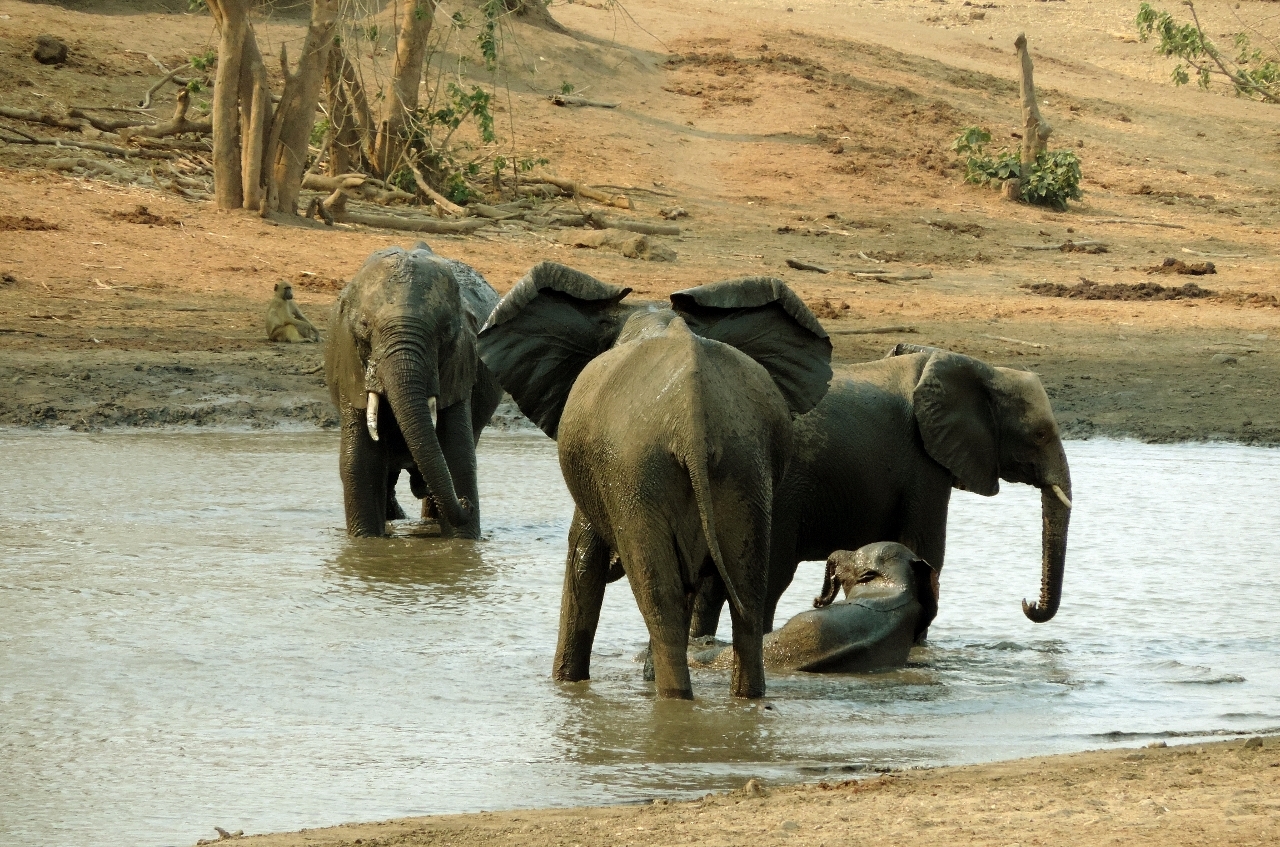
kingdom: Animalia
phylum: Chordata
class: Mammalia
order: Proboscidea
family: Elephantidae
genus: Loxodonta
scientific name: Loxodonta africana
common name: African elephant
